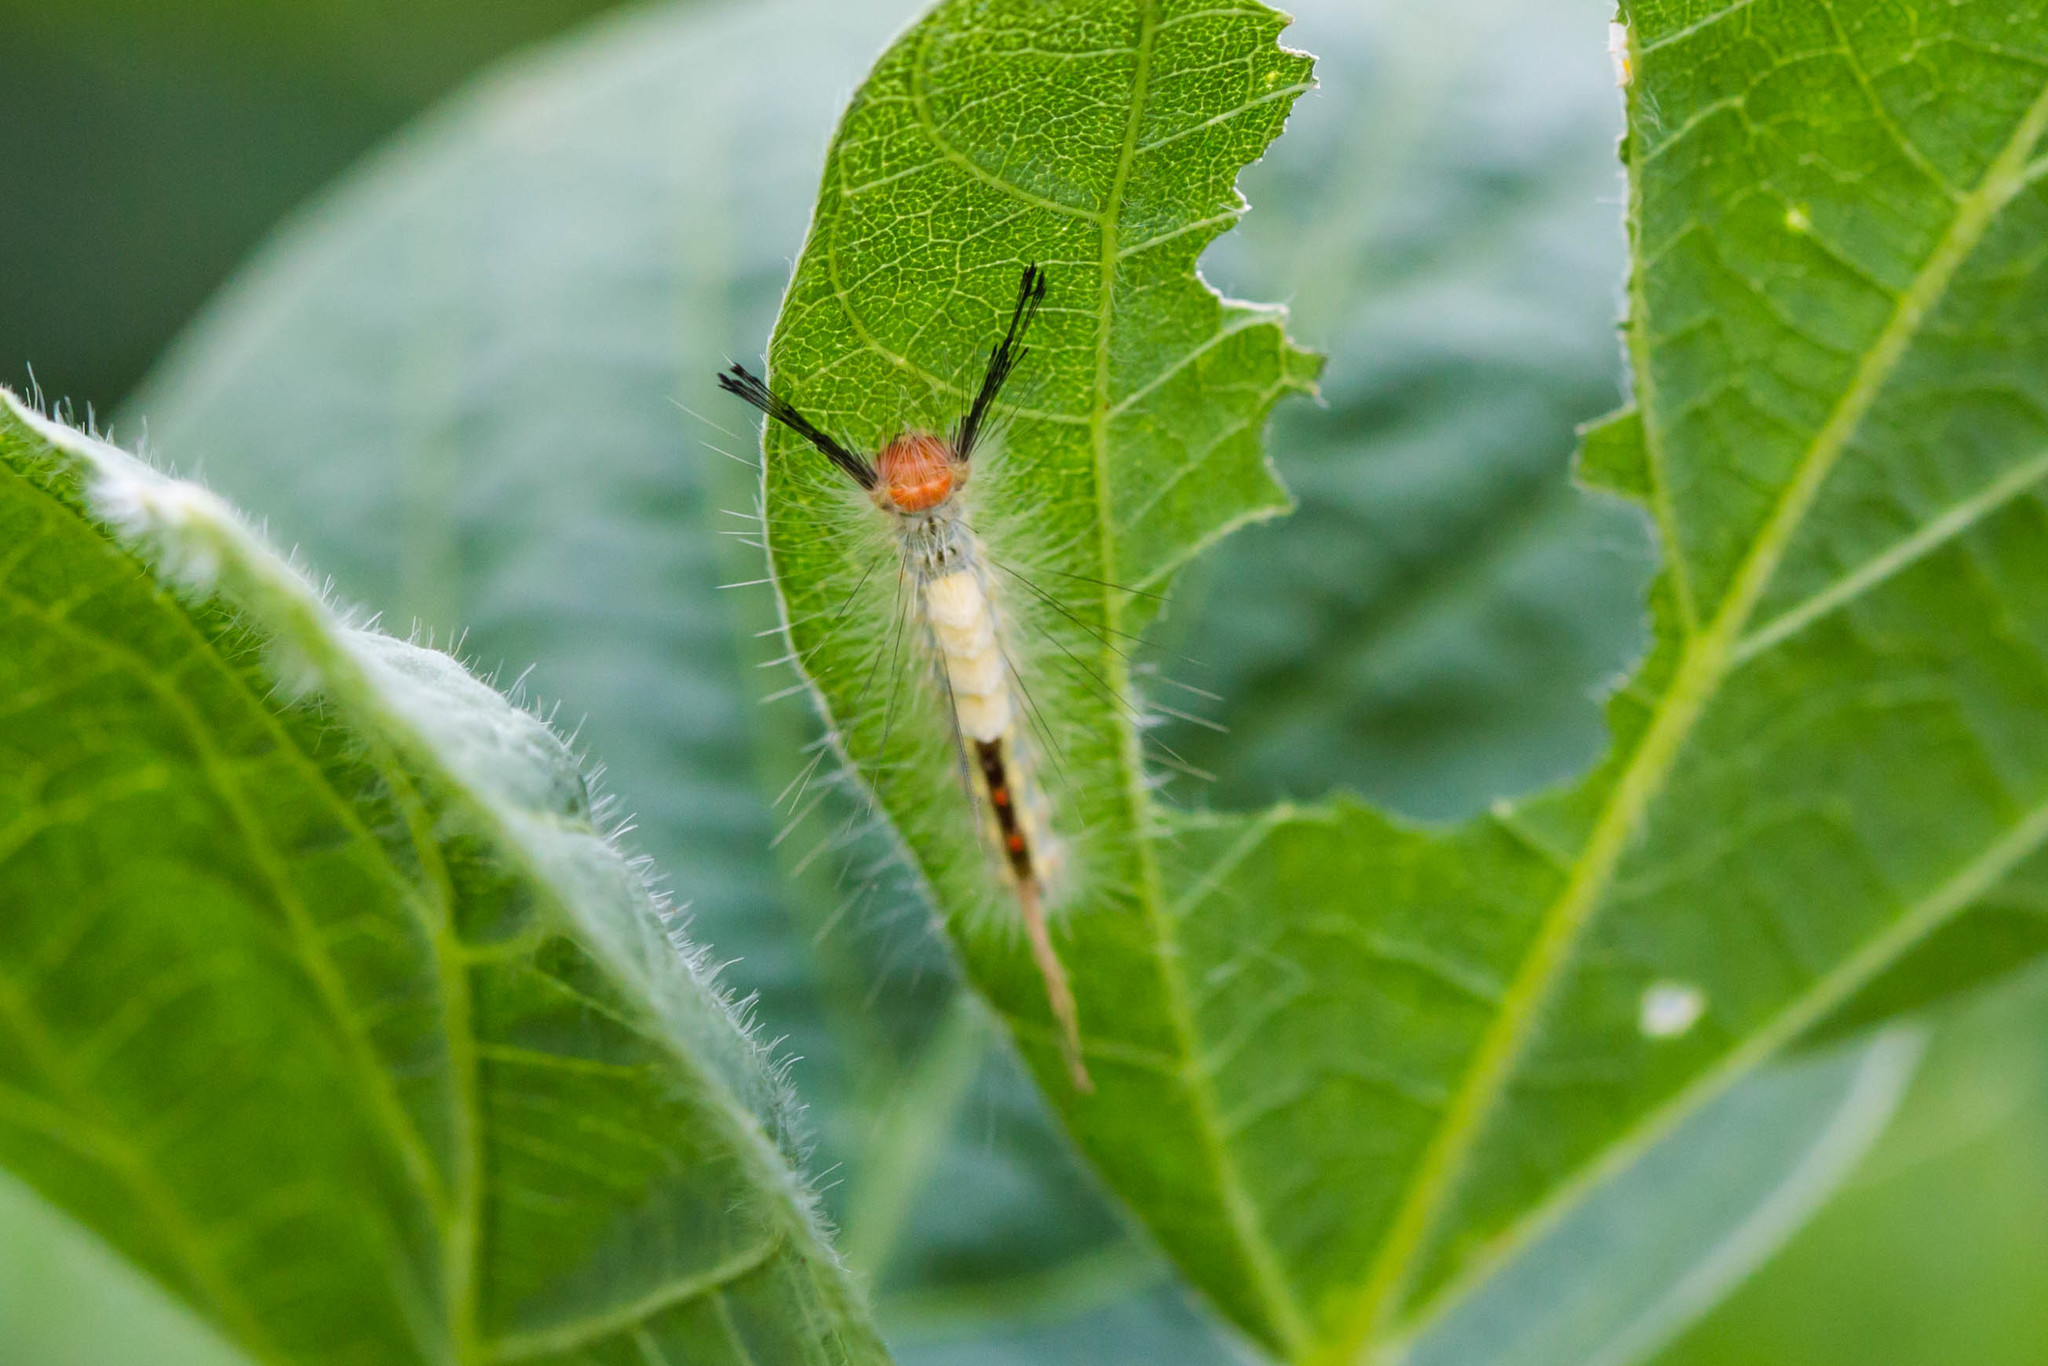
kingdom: Animalia
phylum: Arthropoda
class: Insecta
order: Lepidoptera
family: Erebidae
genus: Orgyia
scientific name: Orgyia leucostigma
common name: White-marked tussock moth
